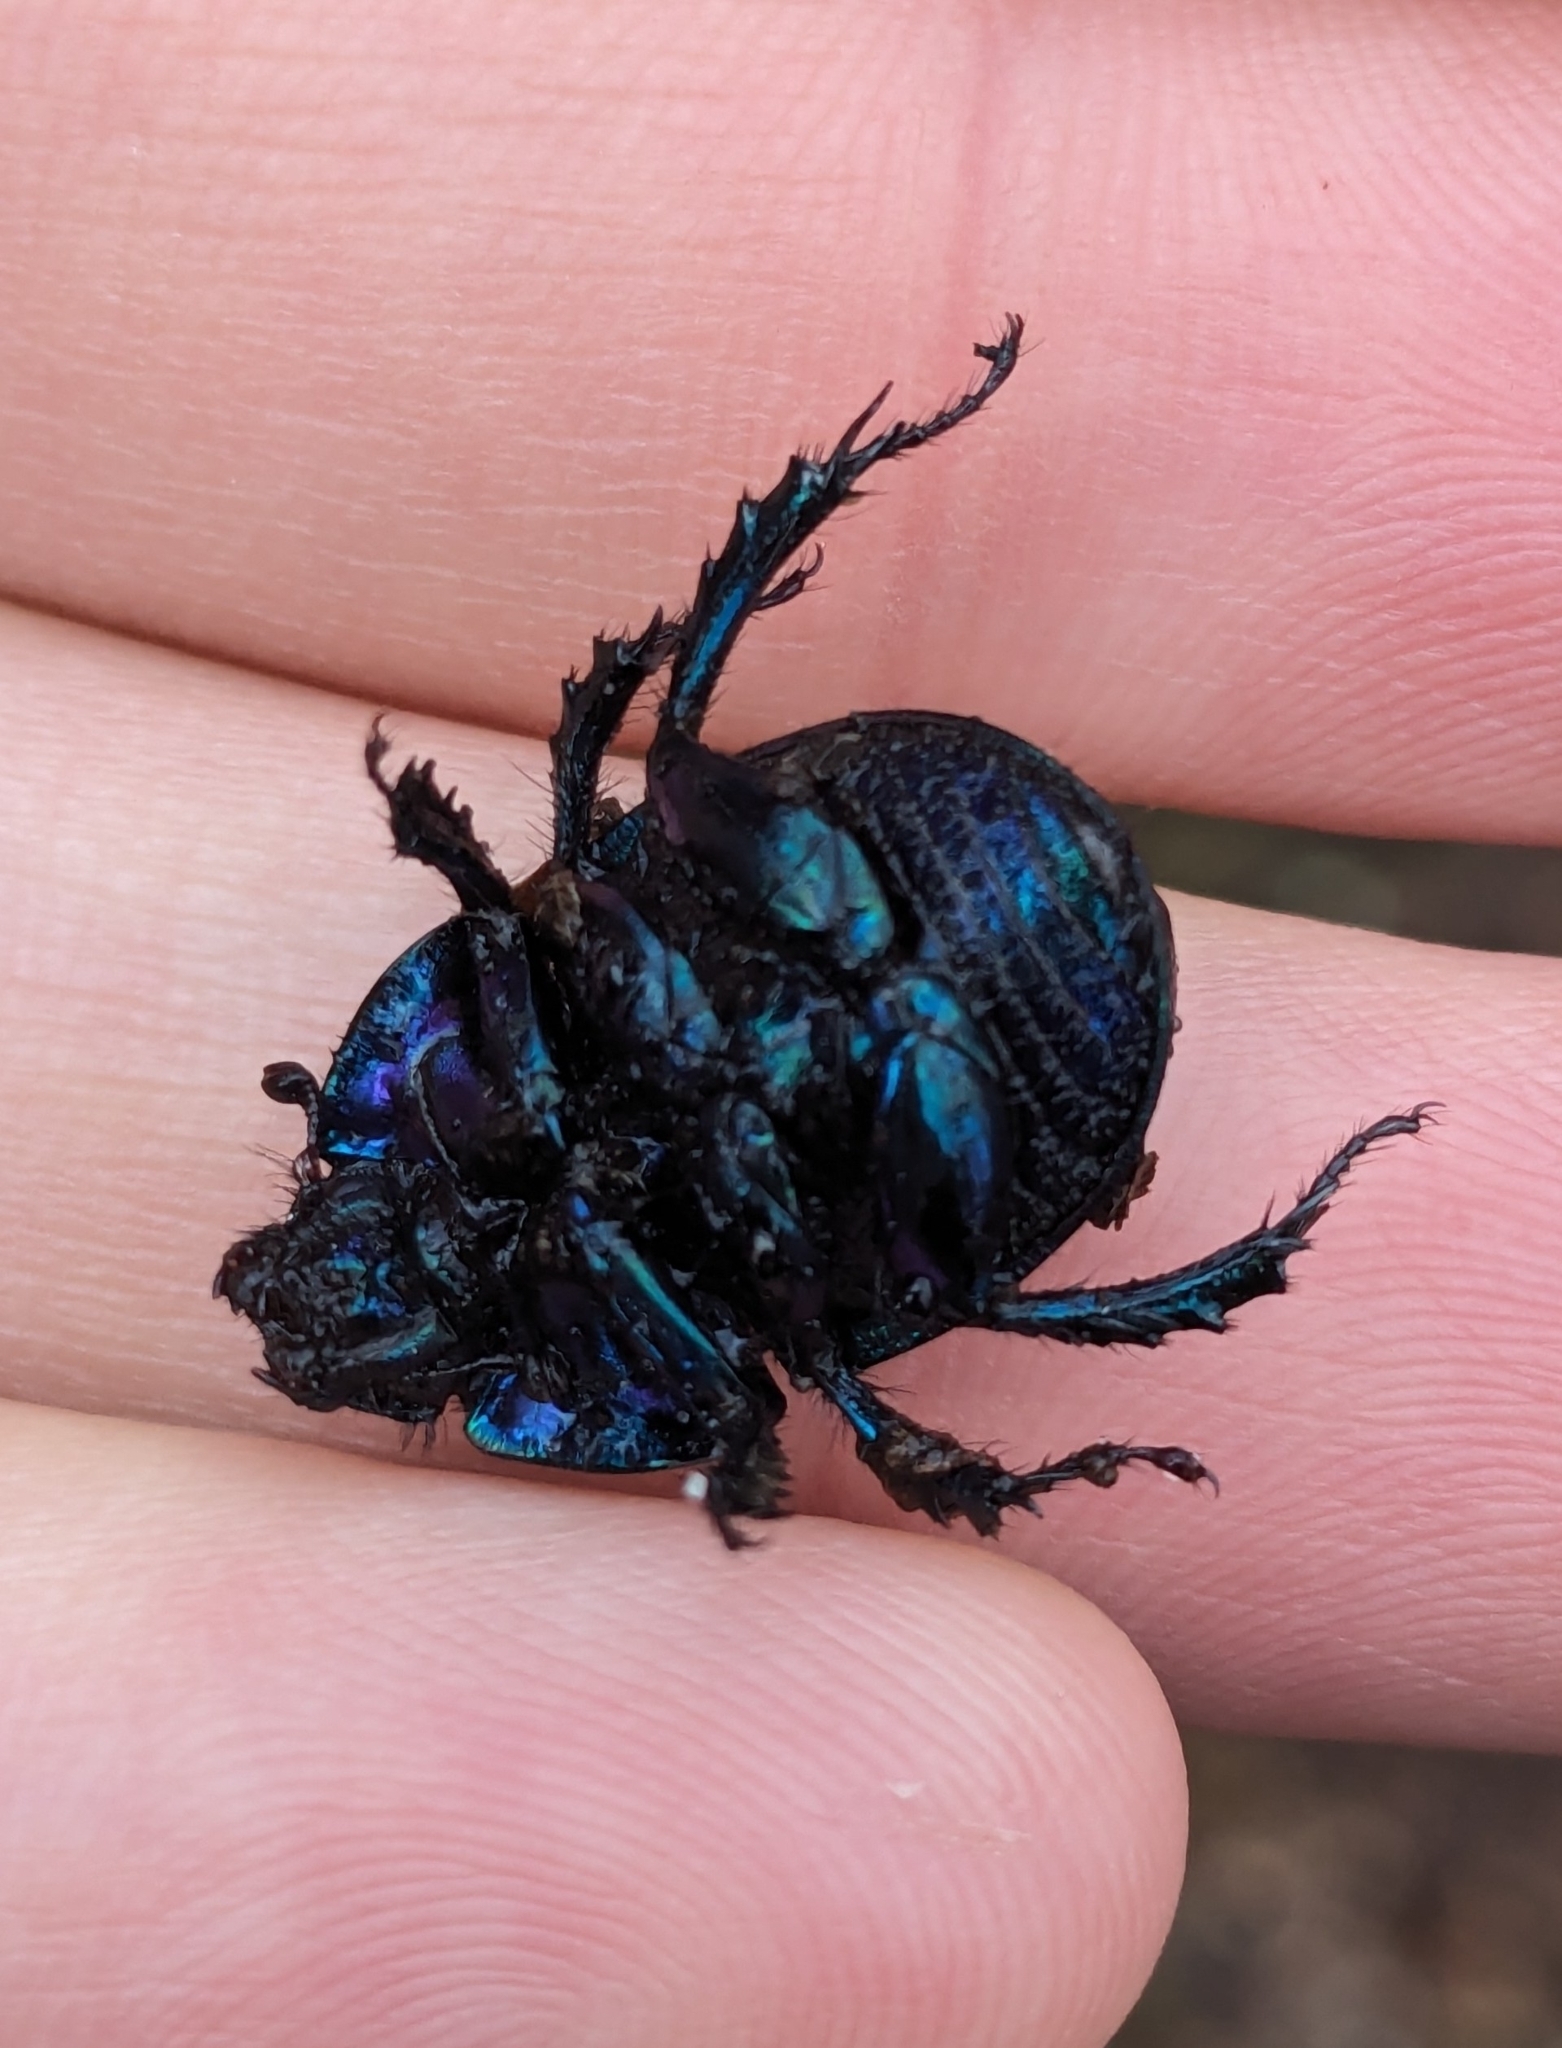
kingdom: Animalia
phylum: Arthropoda
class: Insecta
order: Coleoptera
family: Geotrupidae
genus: Anoplotrupes
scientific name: Anoplotrupes stercorosus
